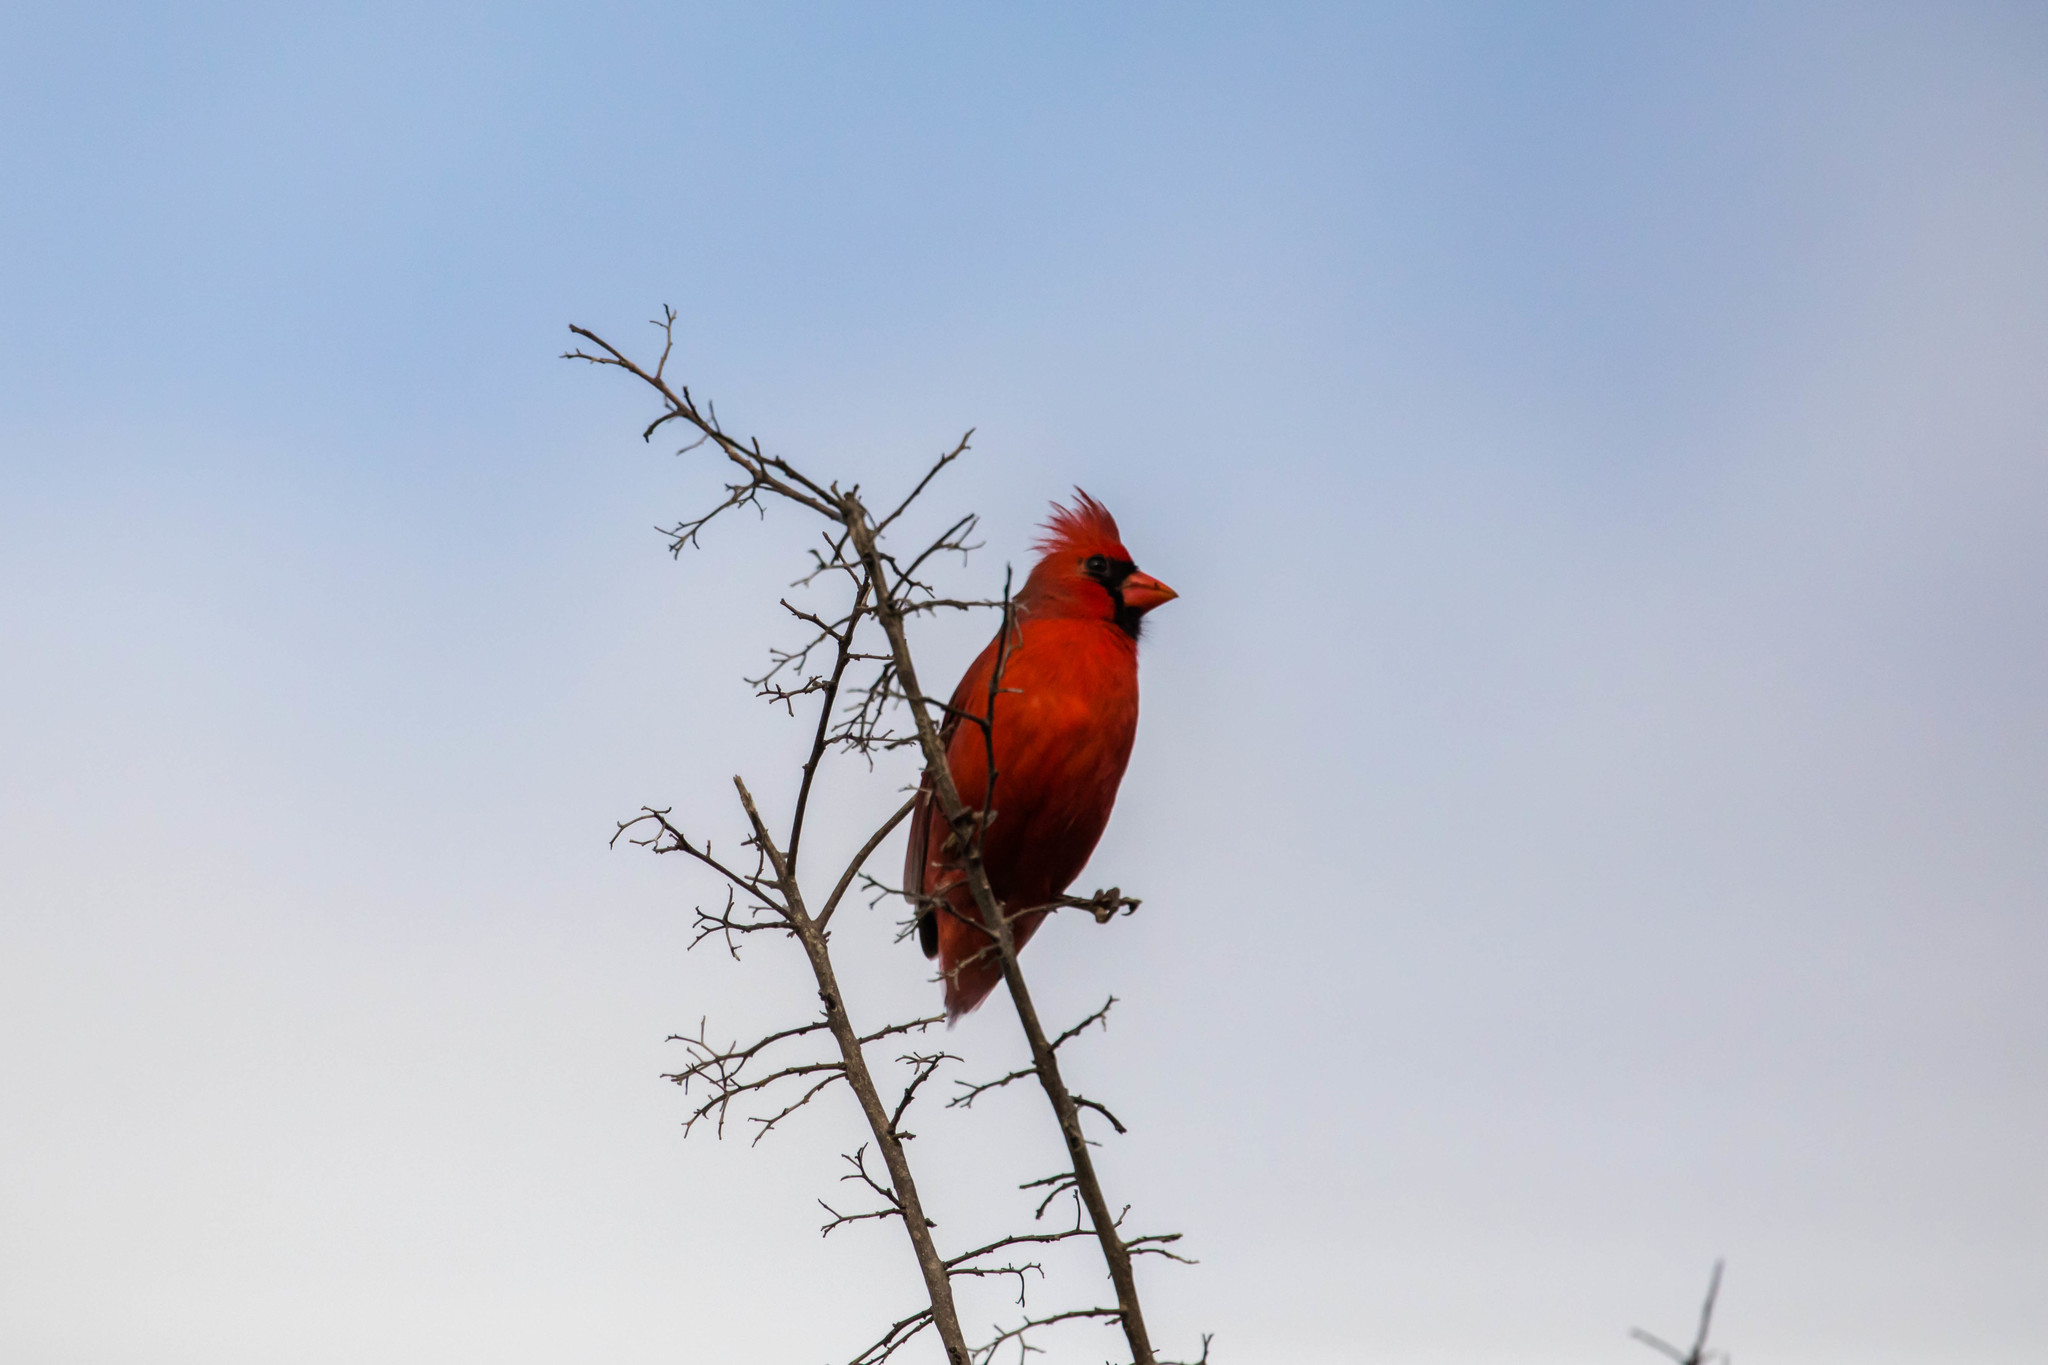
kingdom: Animalia
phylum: Chordata
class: Aves
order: Passeriformes
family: Cardinalidae
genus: Cardinalis
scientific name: Cardinalis cardinalis
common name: Northern cardinal
